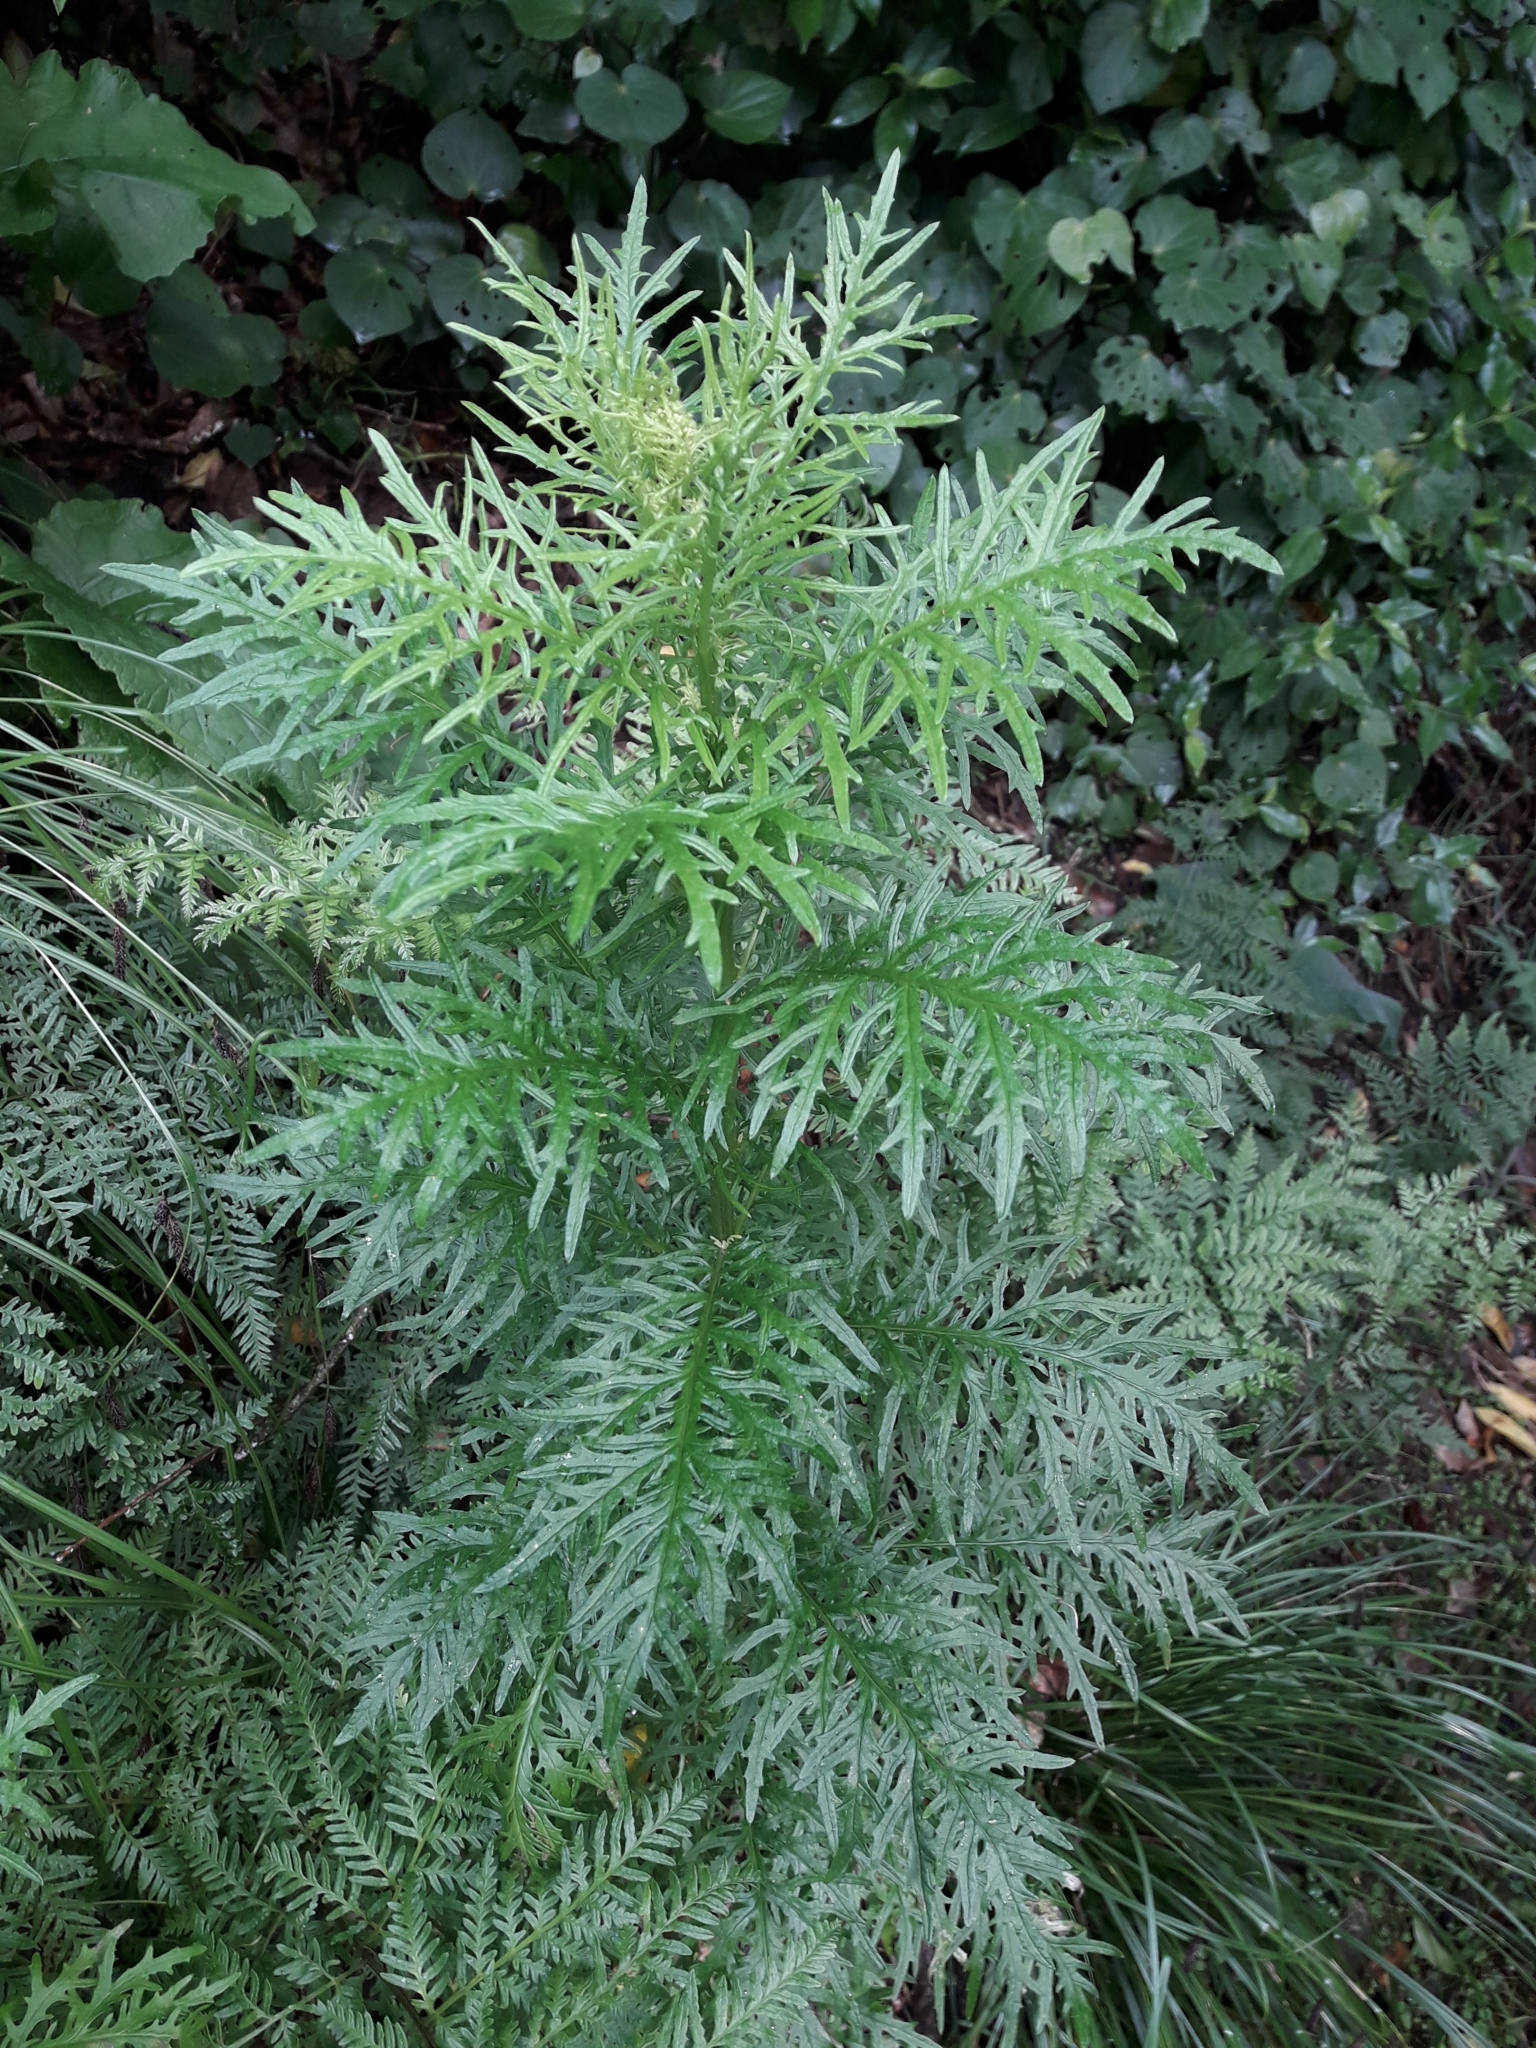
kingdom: Plantae
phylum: Tracheophyta
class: Magnoliopsida
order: Asterales
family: Asteraceae
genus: Senecio
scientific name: Senecio bipinnatisectus
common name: Australian fireweed
